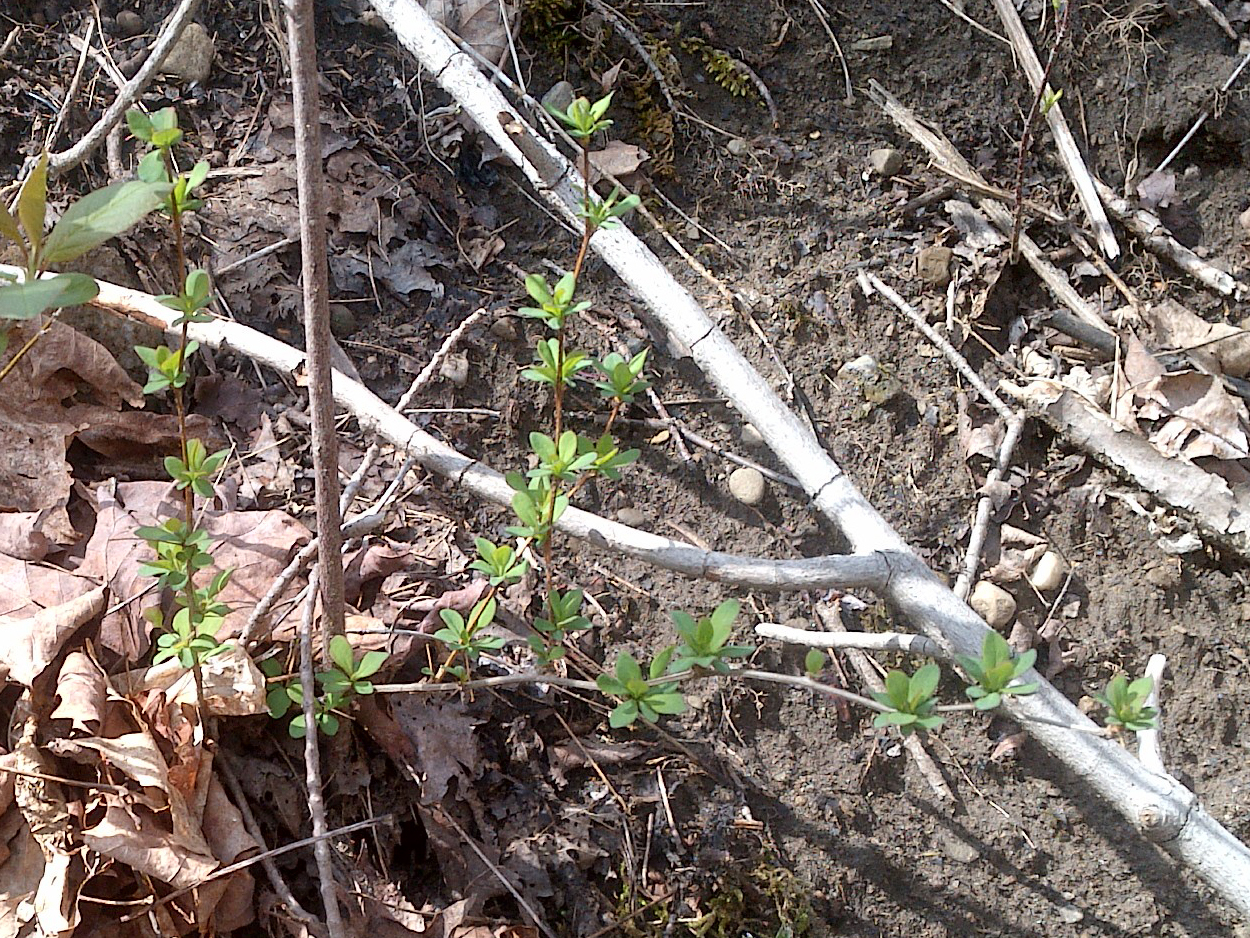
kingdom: Plantae
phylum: Tracheophyta
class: Magnoliopsida
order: Ranunculales
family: Berberidaceae
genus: Berberis
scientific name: Berberis thunbergii
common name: Japanese barberry
